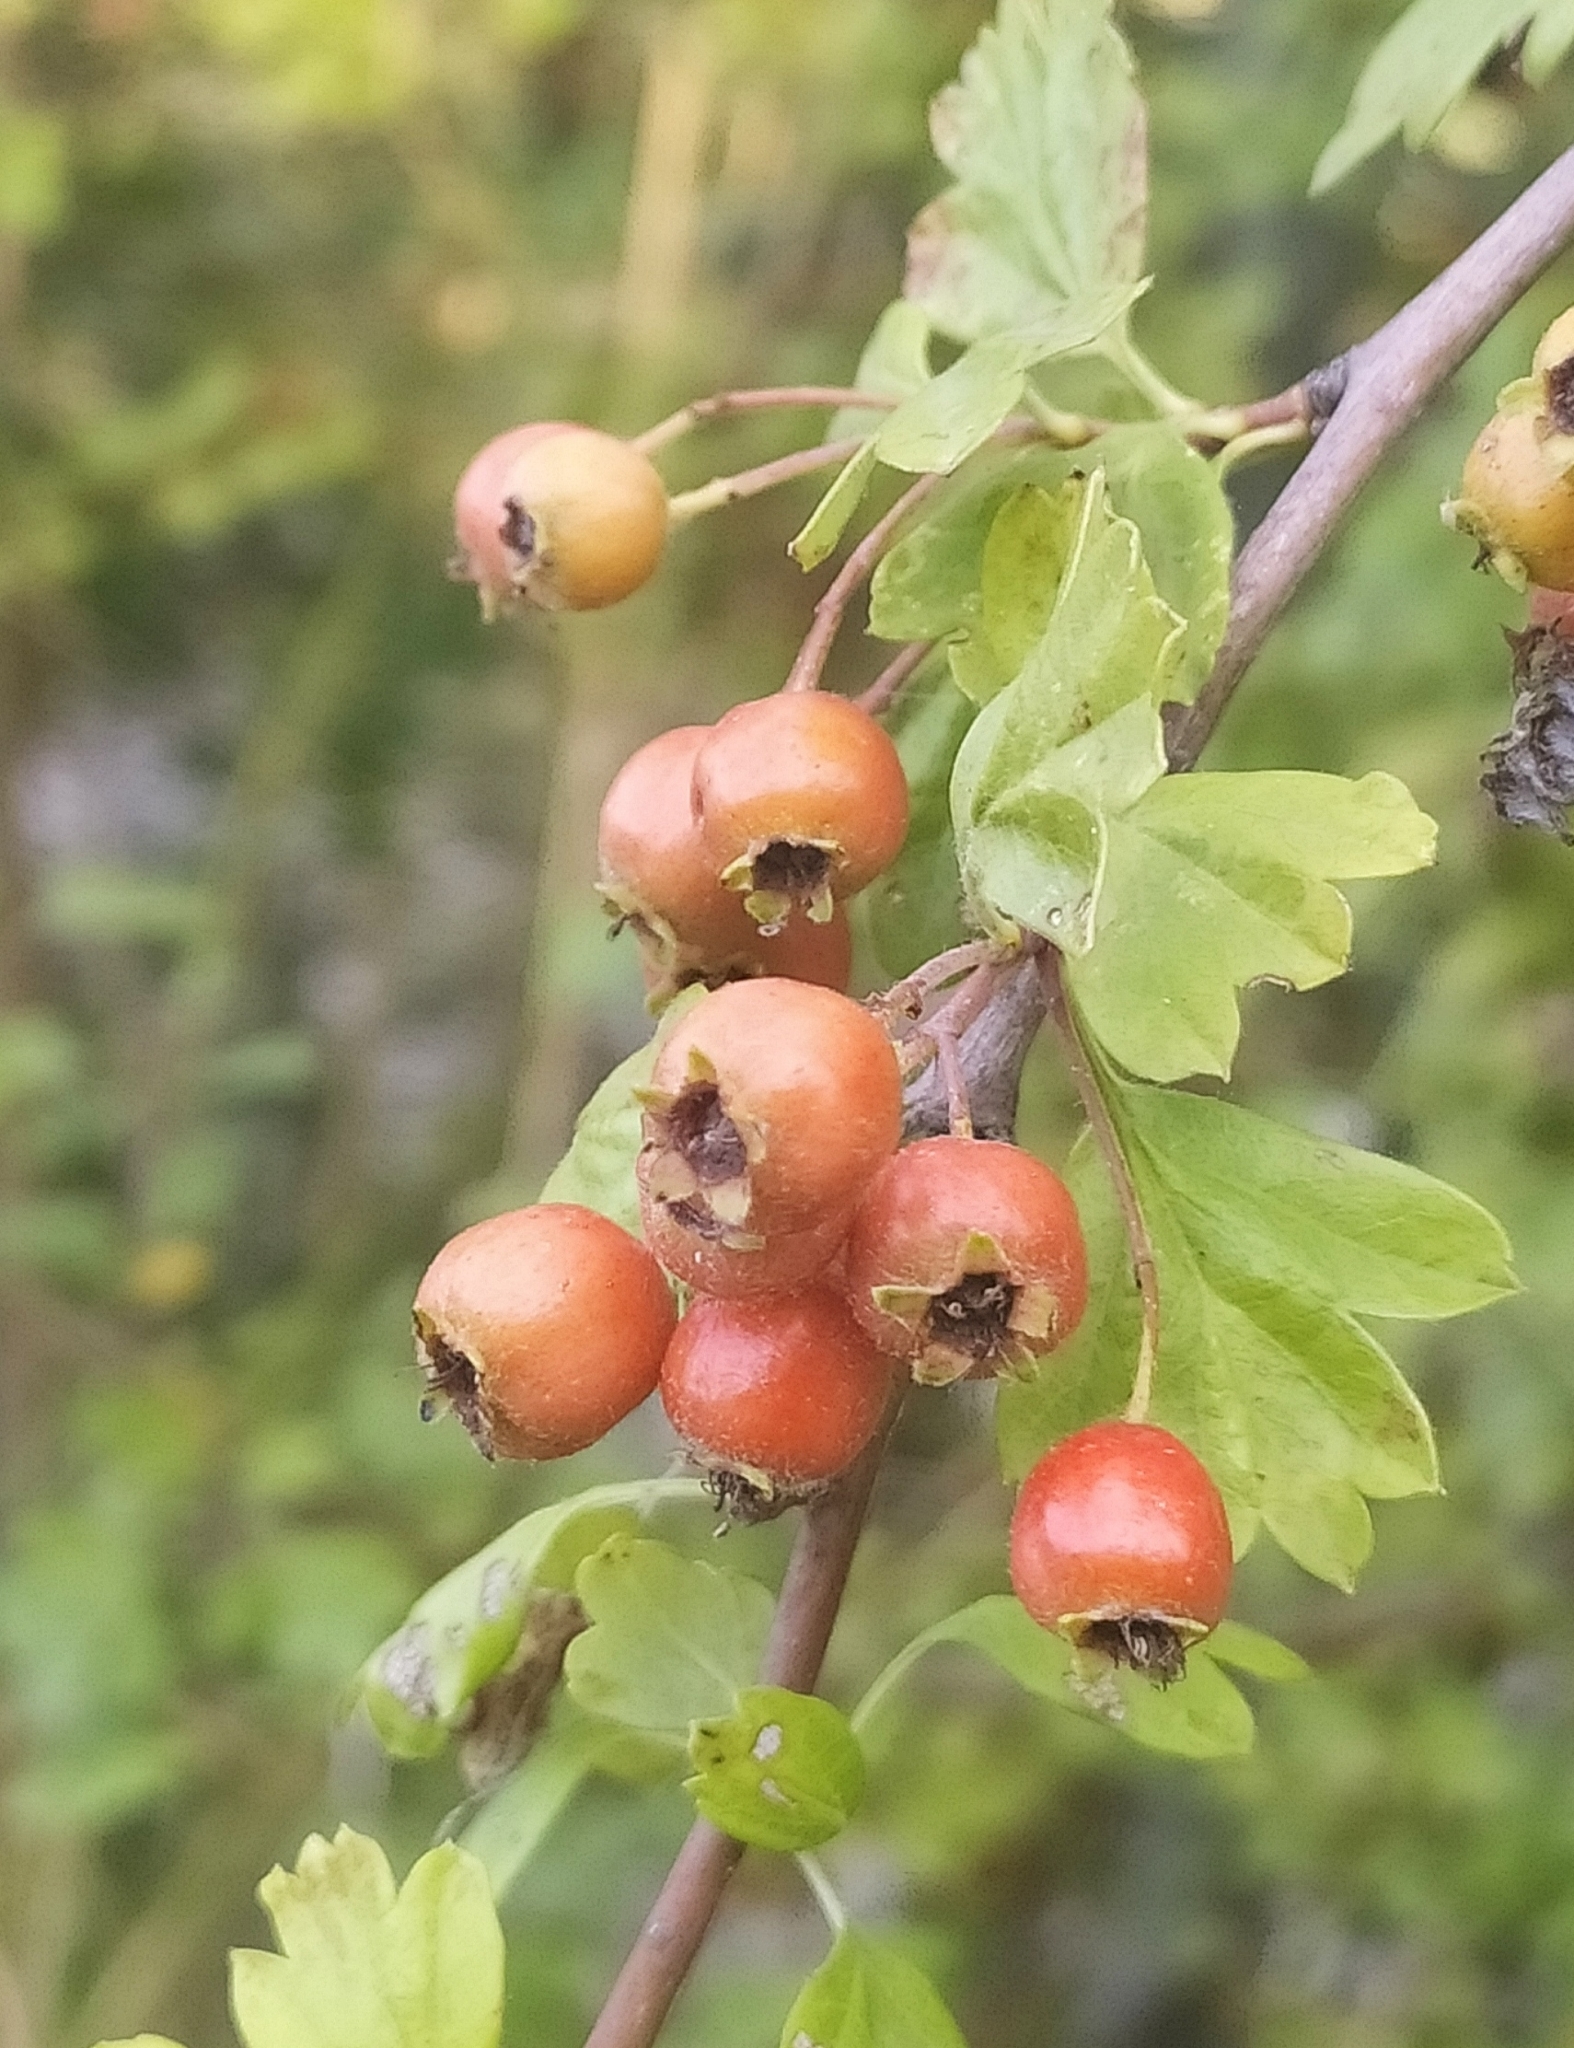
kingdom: Plantae
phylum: Tracheophyta
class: Magnoliopsida
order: Rosales
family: Rosaceae
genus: Crataegus
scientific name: Crataegus monogyna
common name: Hawthorn
